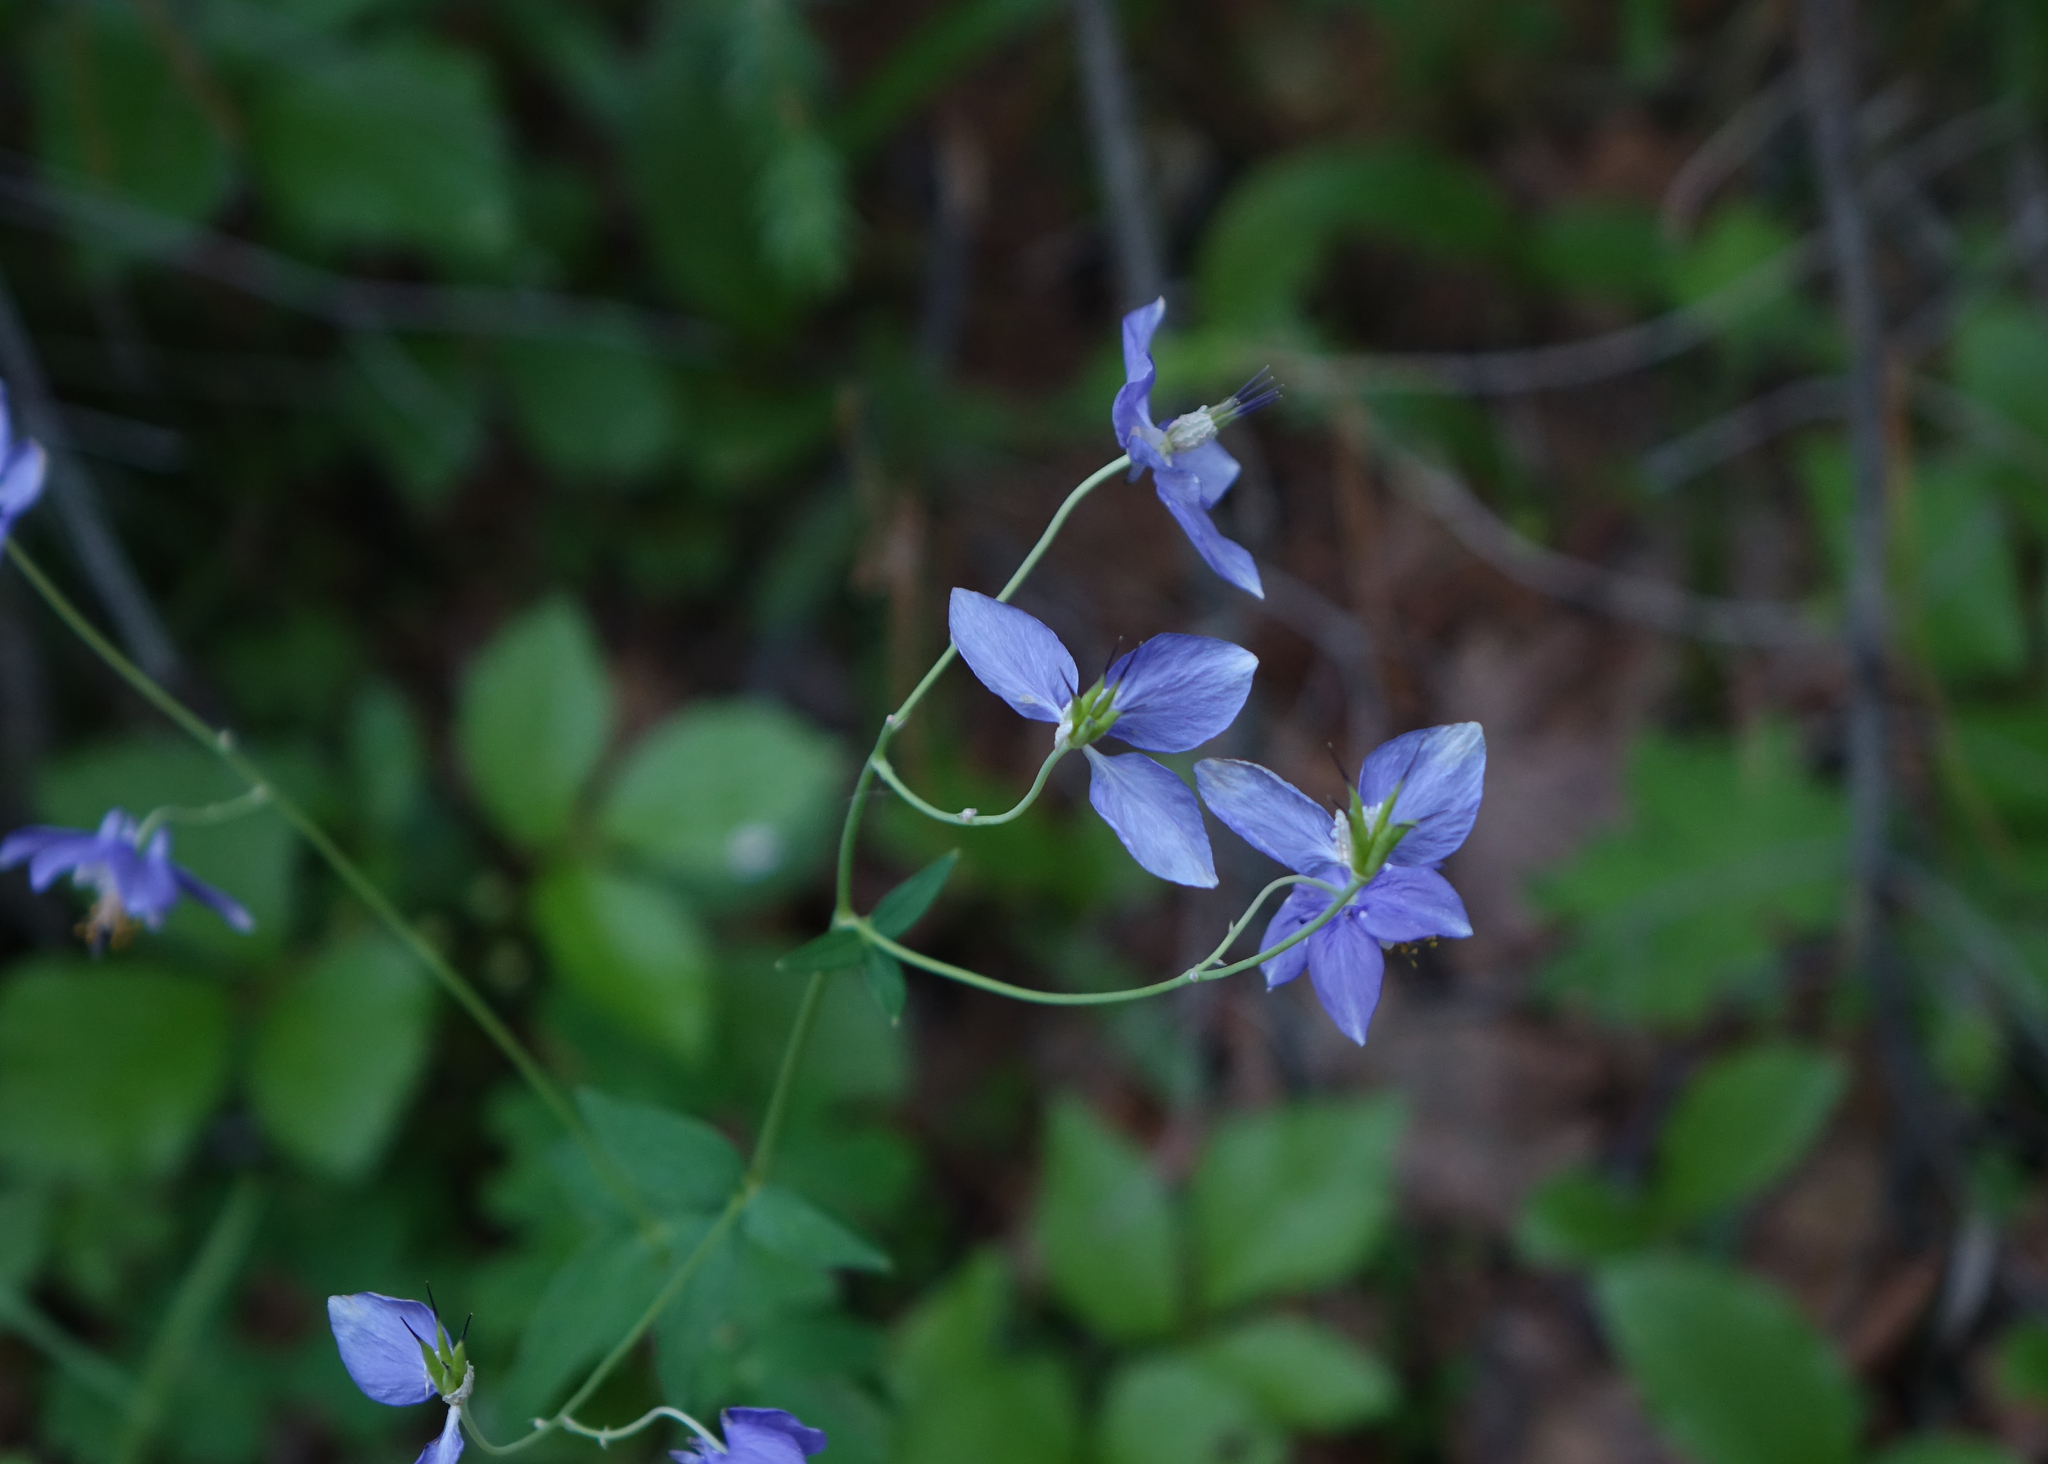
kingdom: Plantae
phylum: Tracheophyta
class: Magnoliopsida
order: Ranunculales
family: Ranunculaceae
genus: Aquilegia
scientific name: Aquilegia parviflora
